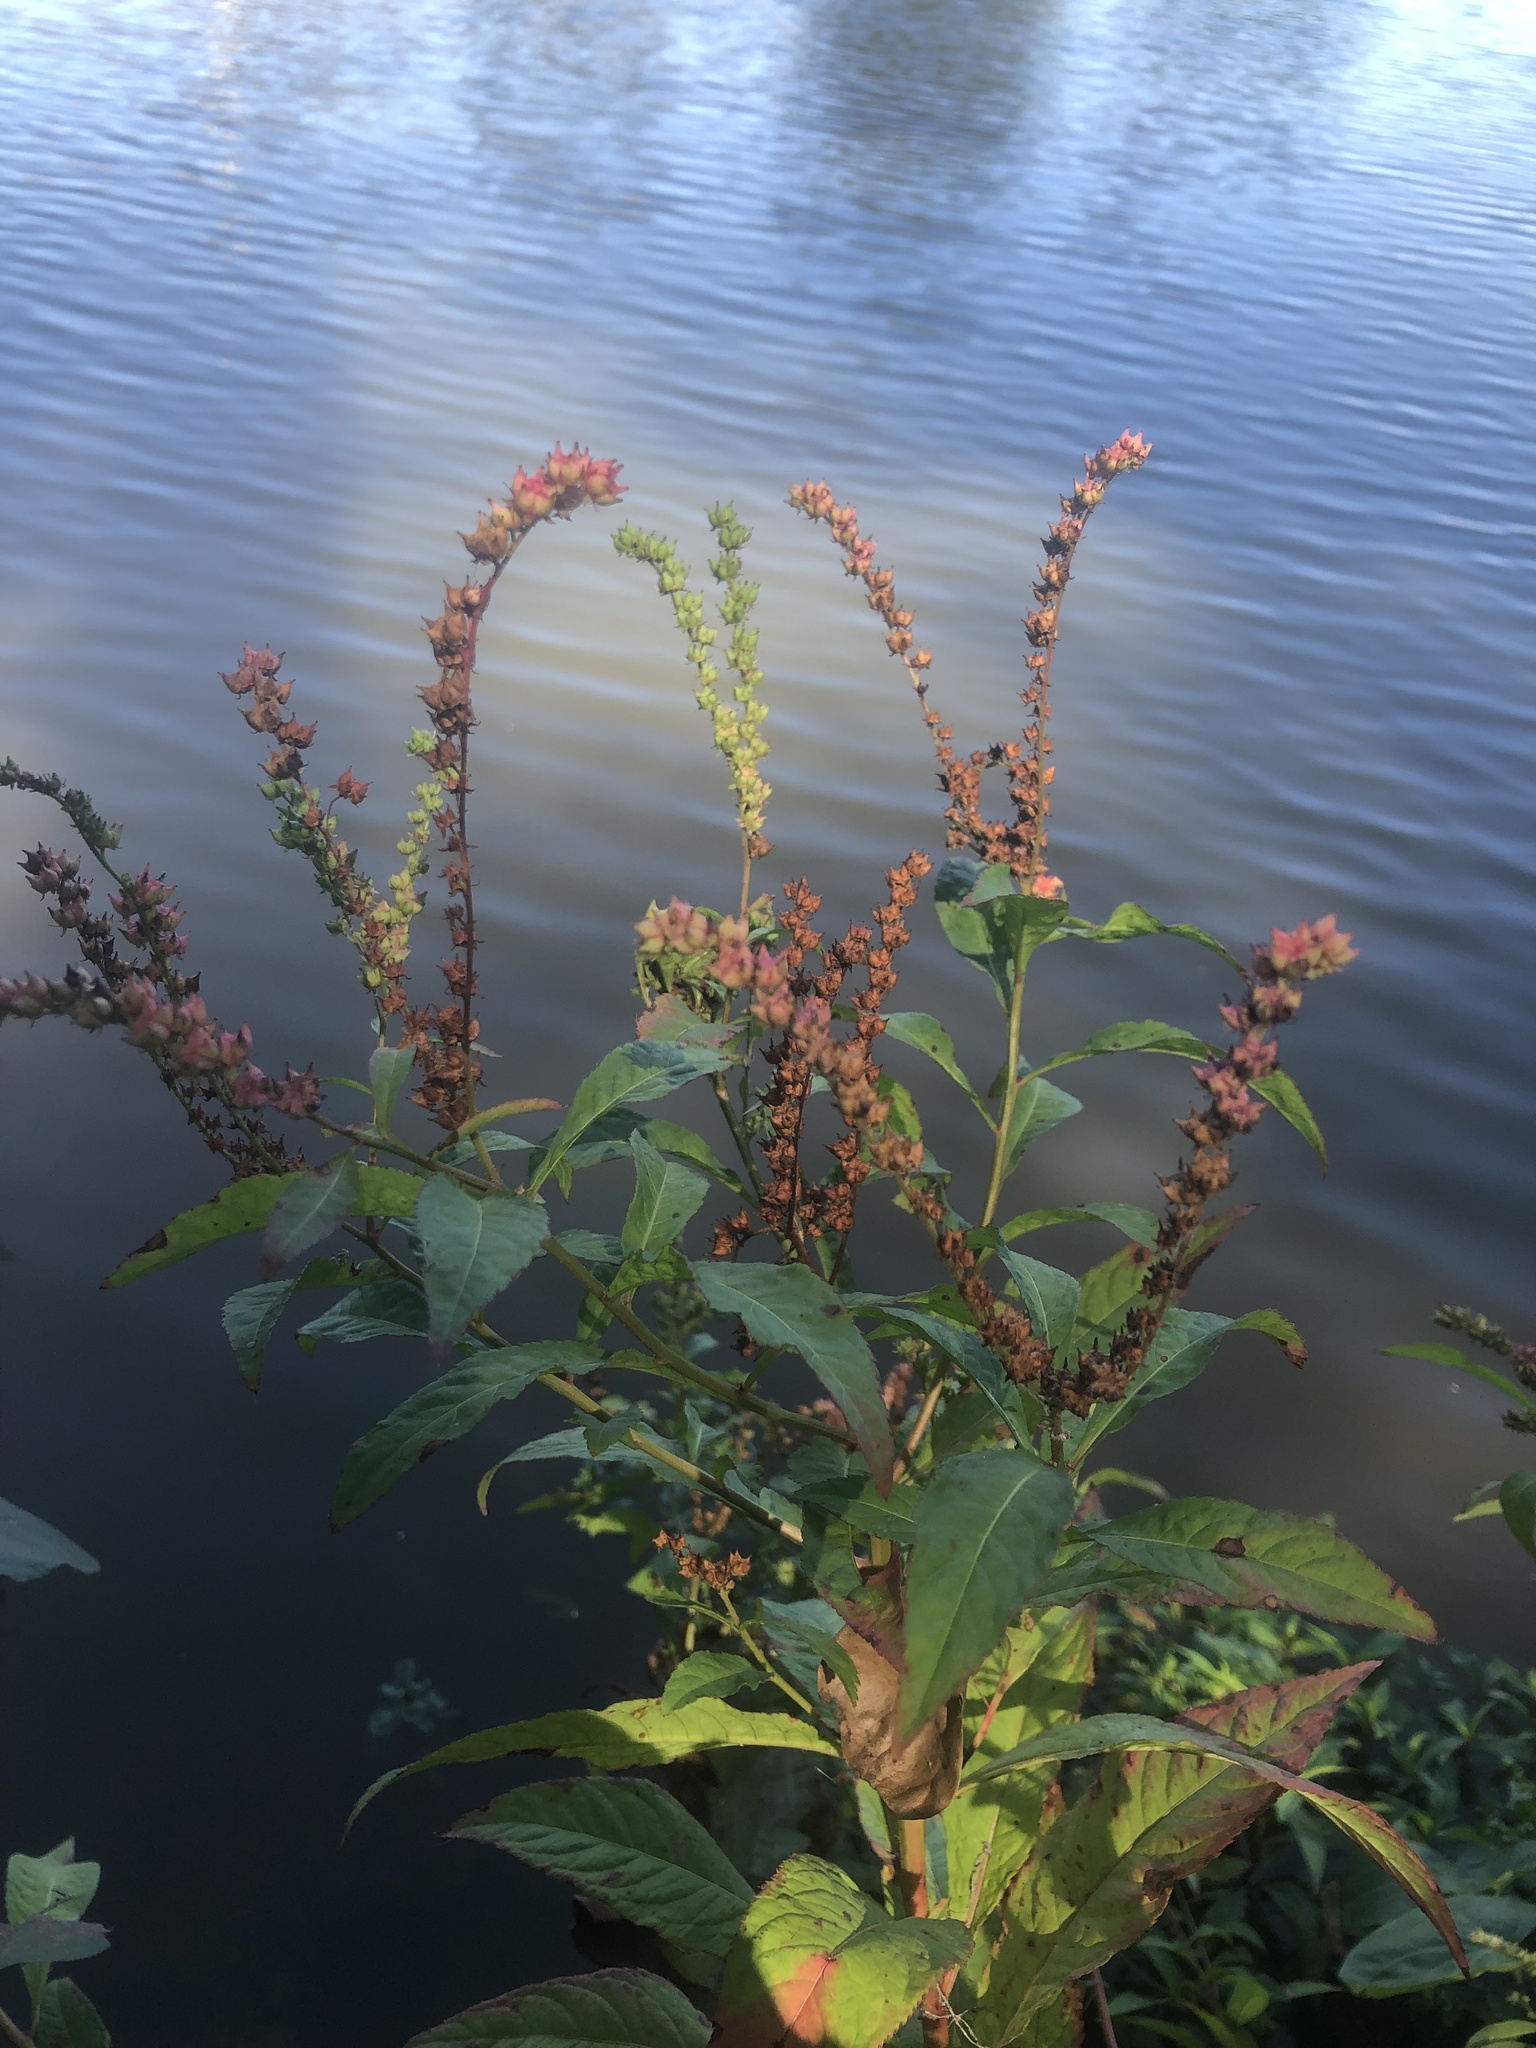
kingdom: Plantae
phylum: Tracheophyta
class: Magnoliopsida
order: Saxifragales
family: Penthoraceae
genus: Penthorum
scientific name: Penthorum sedoides
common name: Ditch stonecrop
